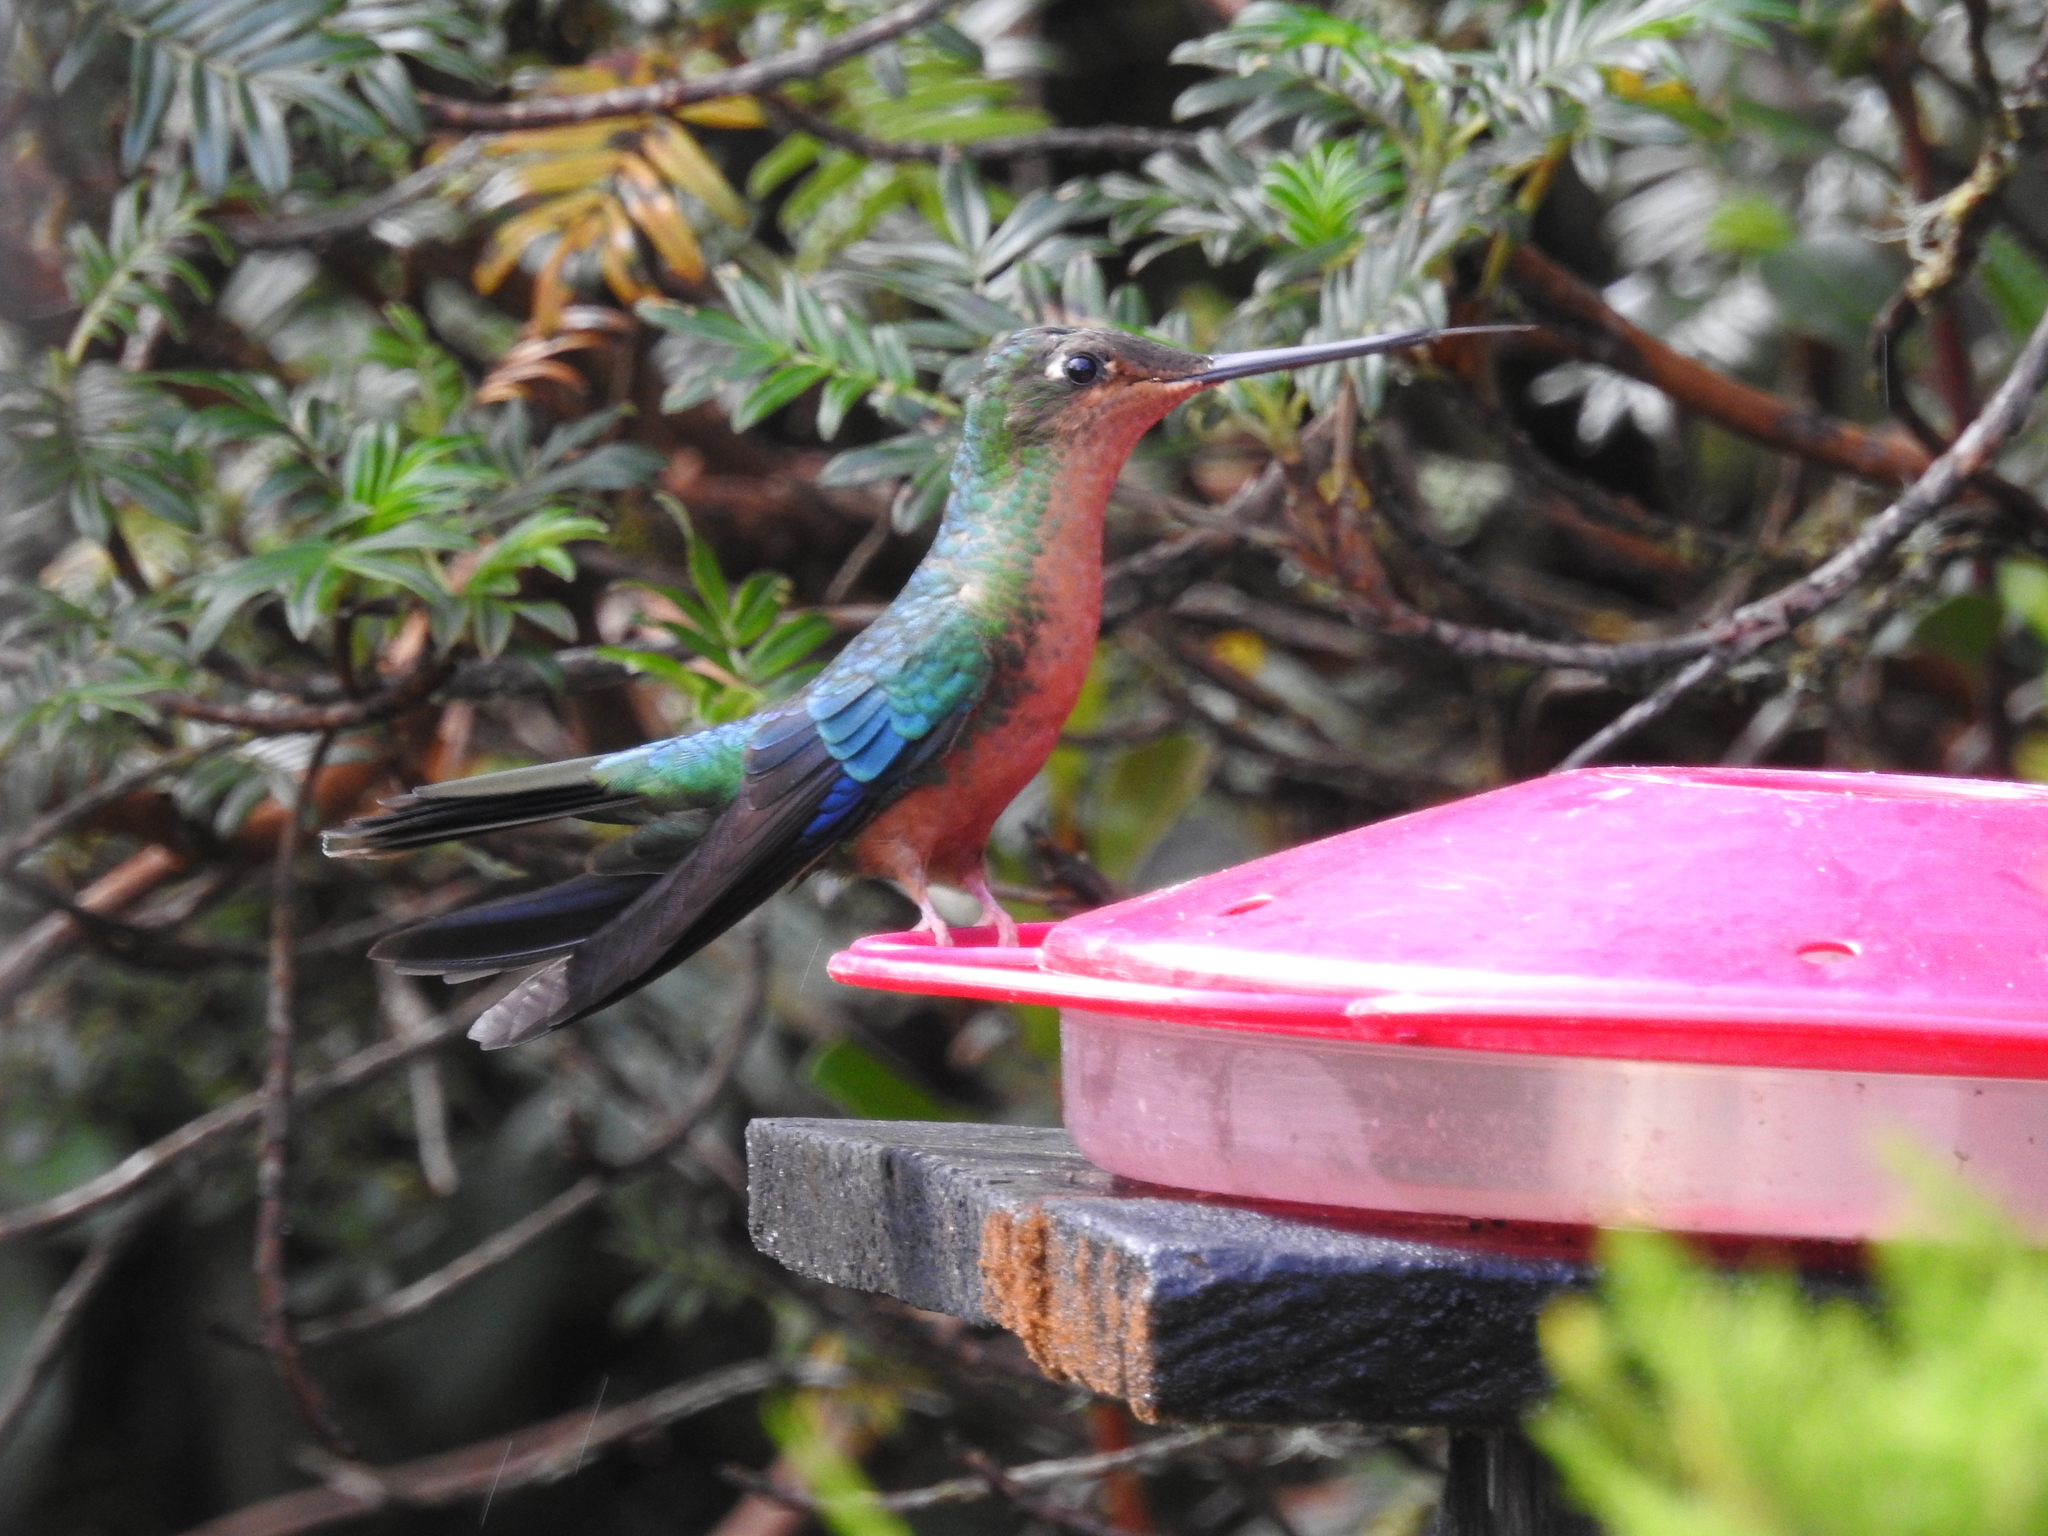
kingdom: Animalia
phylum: Chordata
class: Aves
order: Apodiformes
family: Trochilidae
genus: Pterophanes
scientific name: Pterophanes cyanopterus
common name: Great sapphirewing
